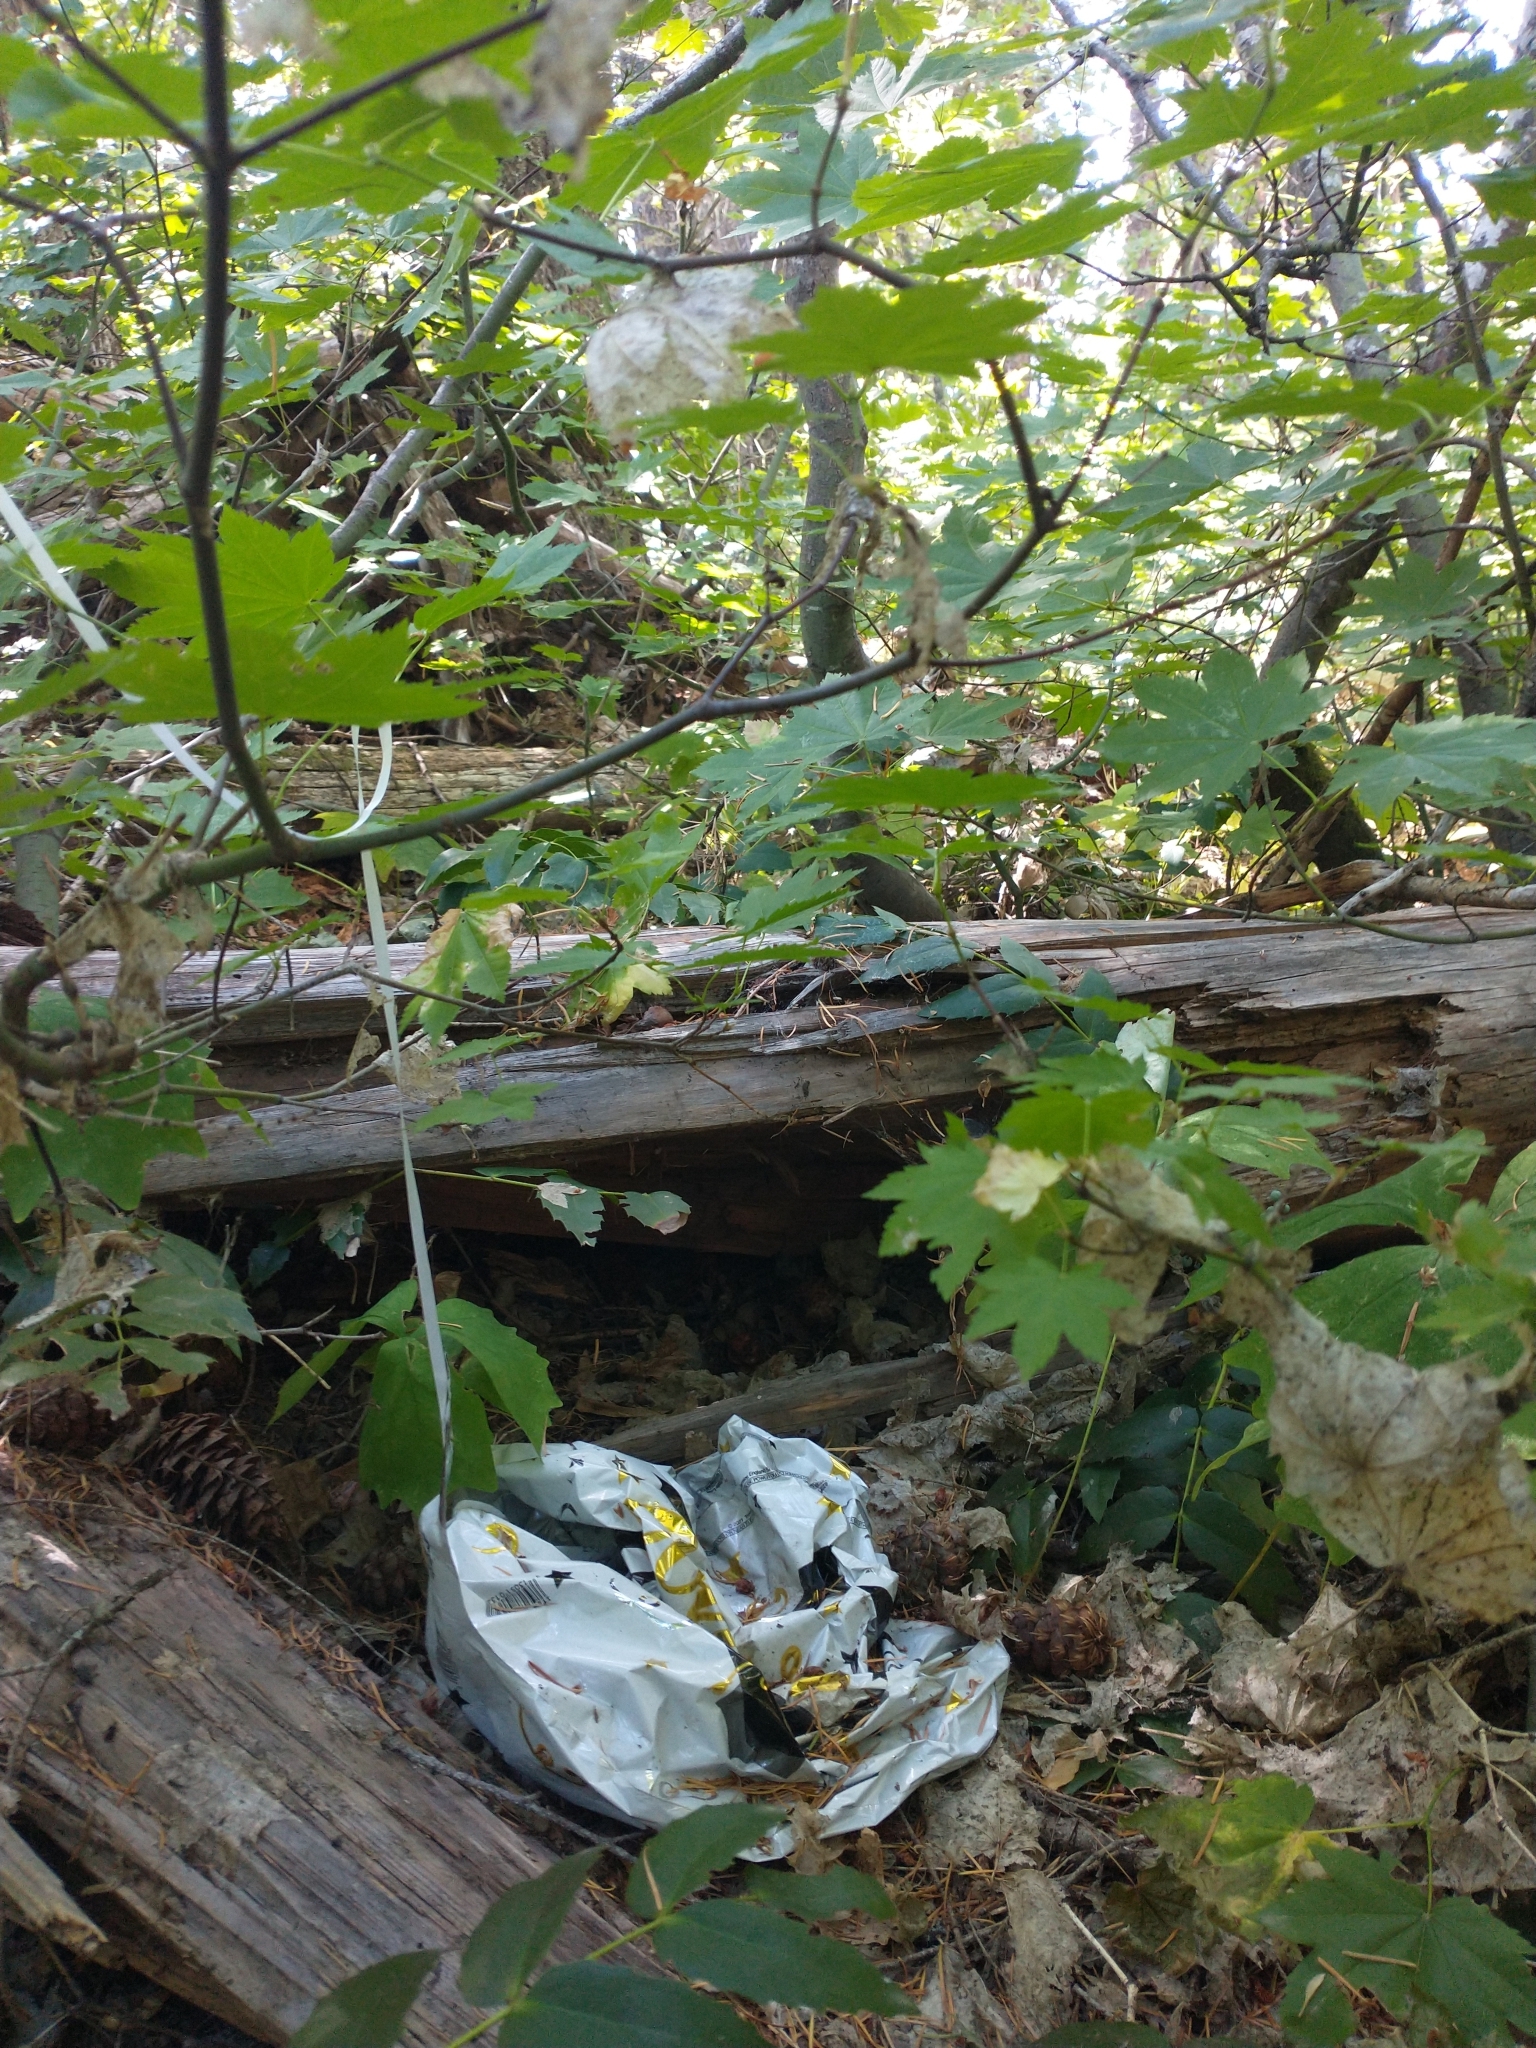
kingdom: Plantae
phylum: Tracheophyta
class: Magnoliopsida
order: Sapindales
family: Sapindaceae
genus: Acer
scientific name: Acer circinatum
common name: Vine maple
